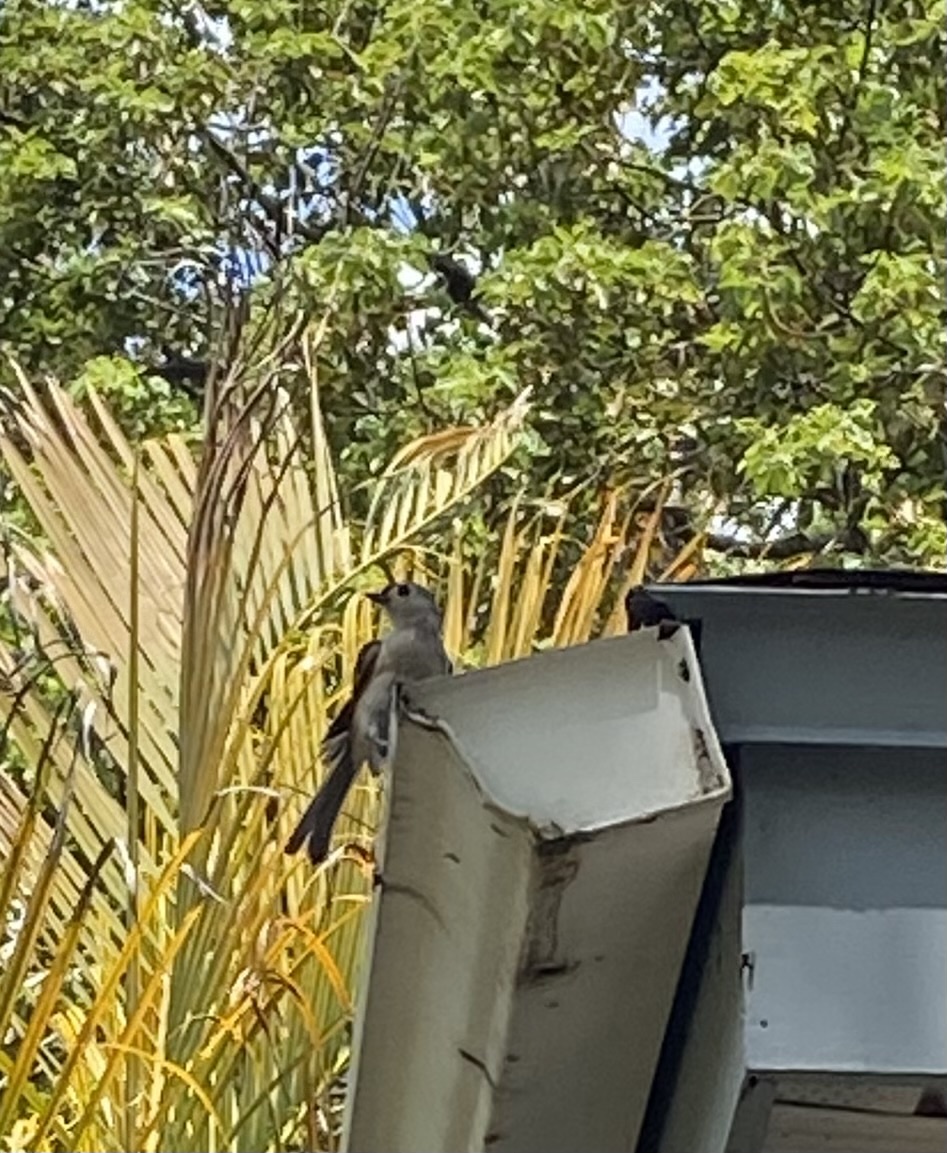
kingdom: Animalia
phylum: Chordata
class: Aves
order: Passeriformes
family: Paridae
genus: Baeolophus
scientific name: Baeolophus bicolor
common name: Tufted titmouse
